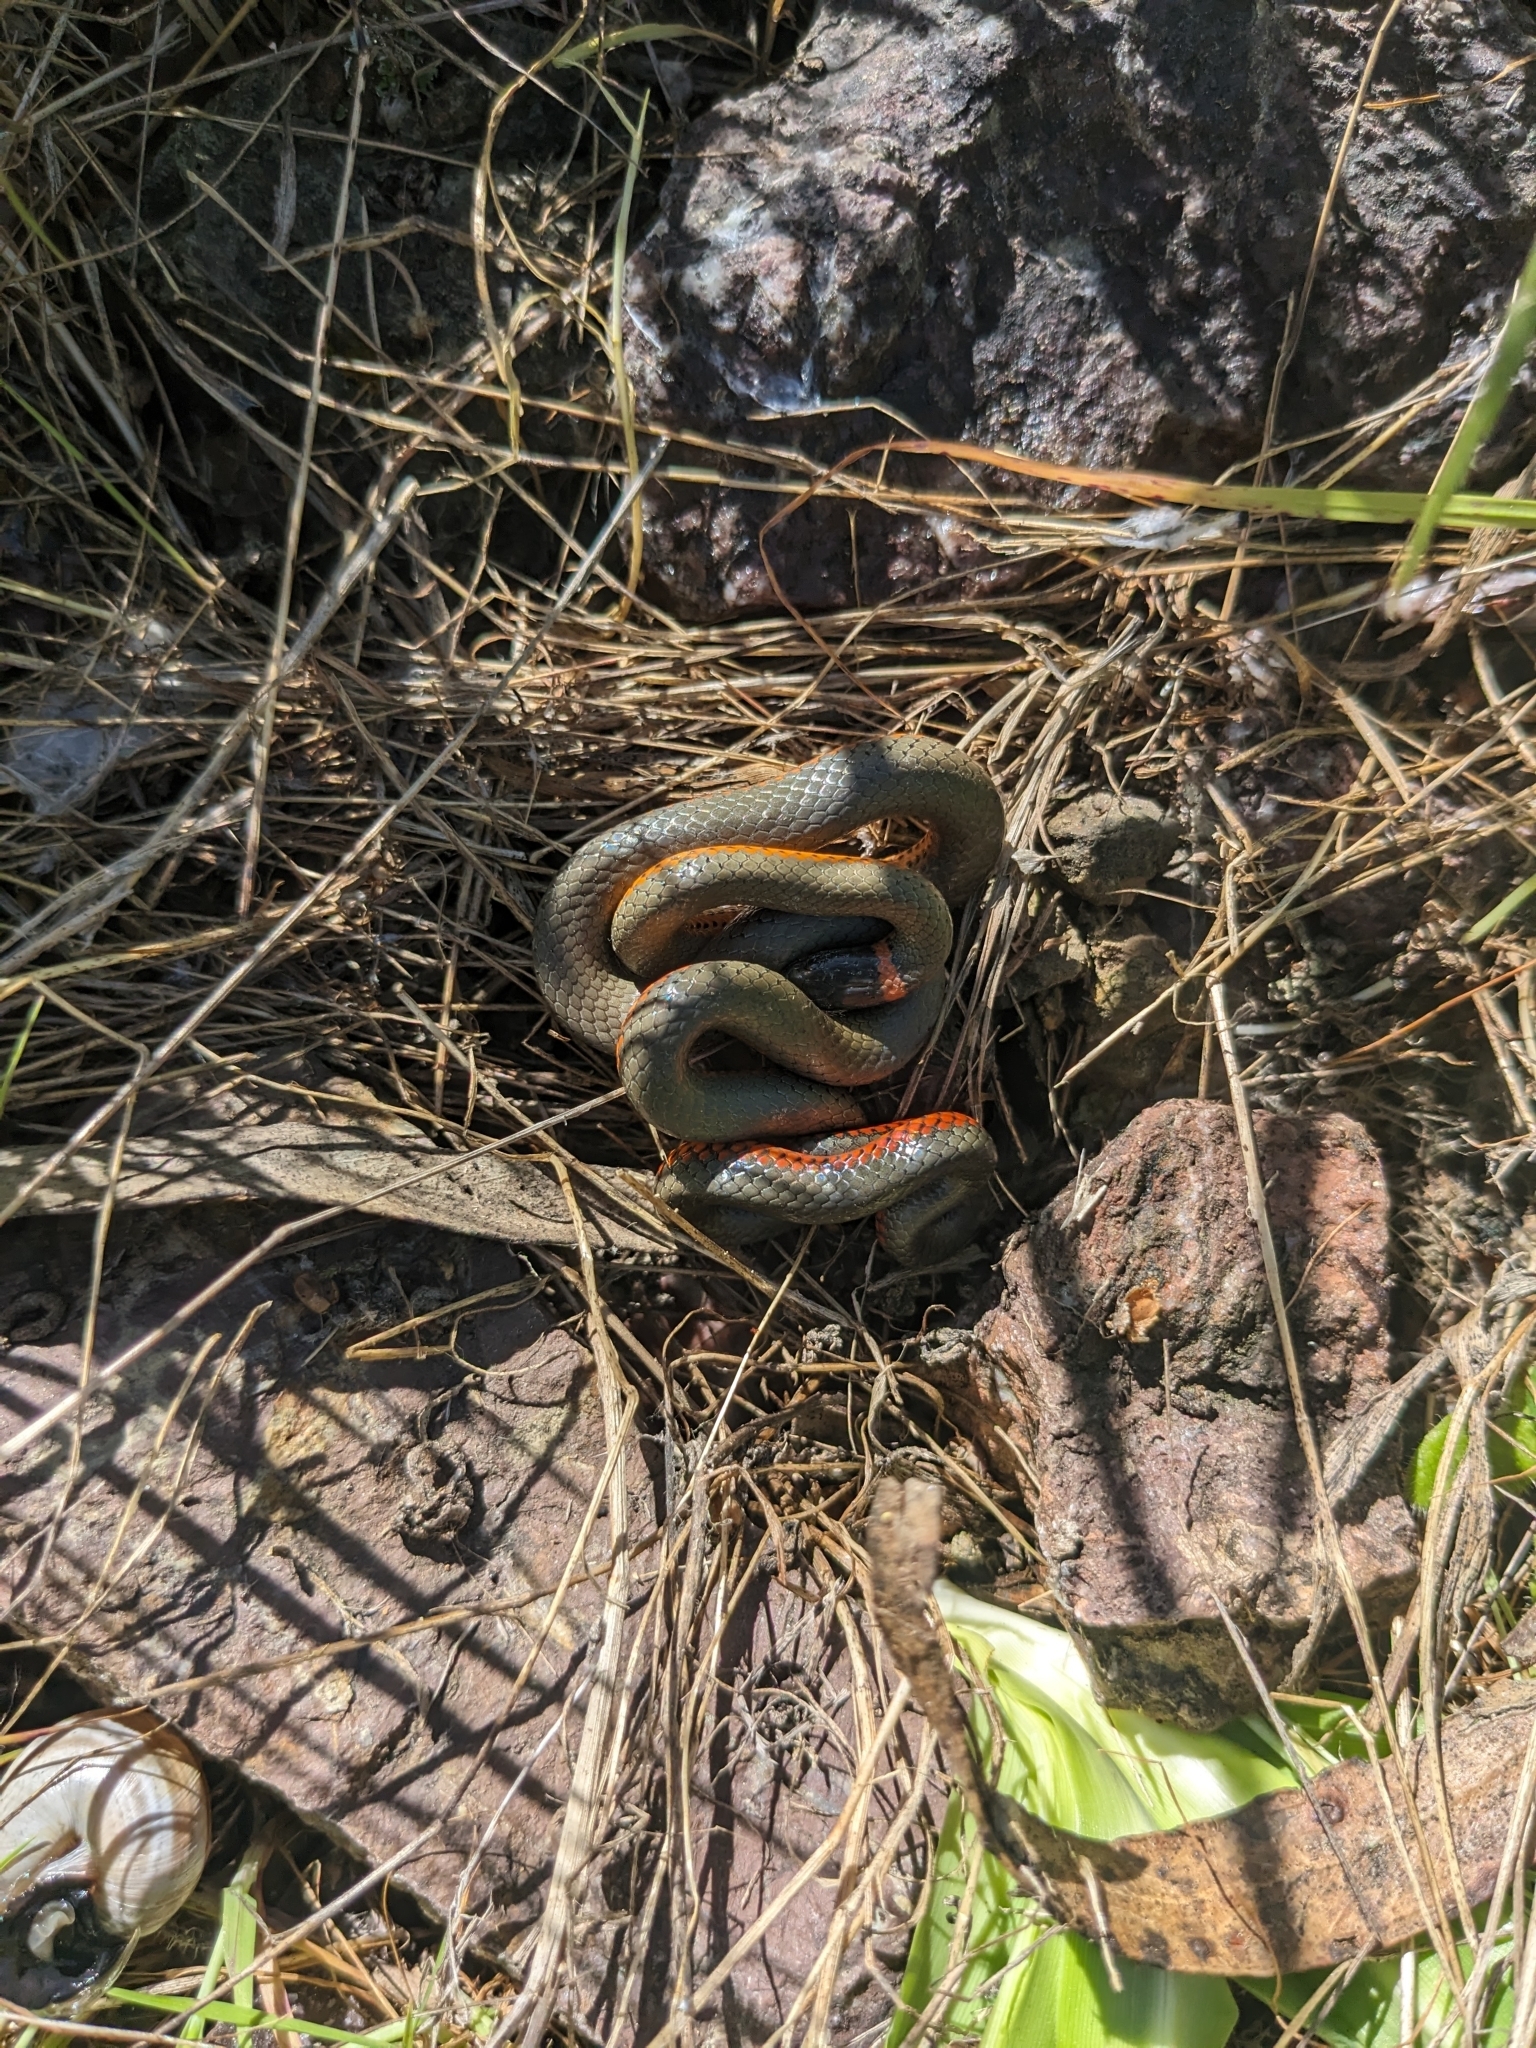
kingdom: Animalia
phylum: Chordata
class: Squamata
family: Colubridae
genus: Diadophis
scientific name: Diadophis punctatus
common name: Ringneck snake
